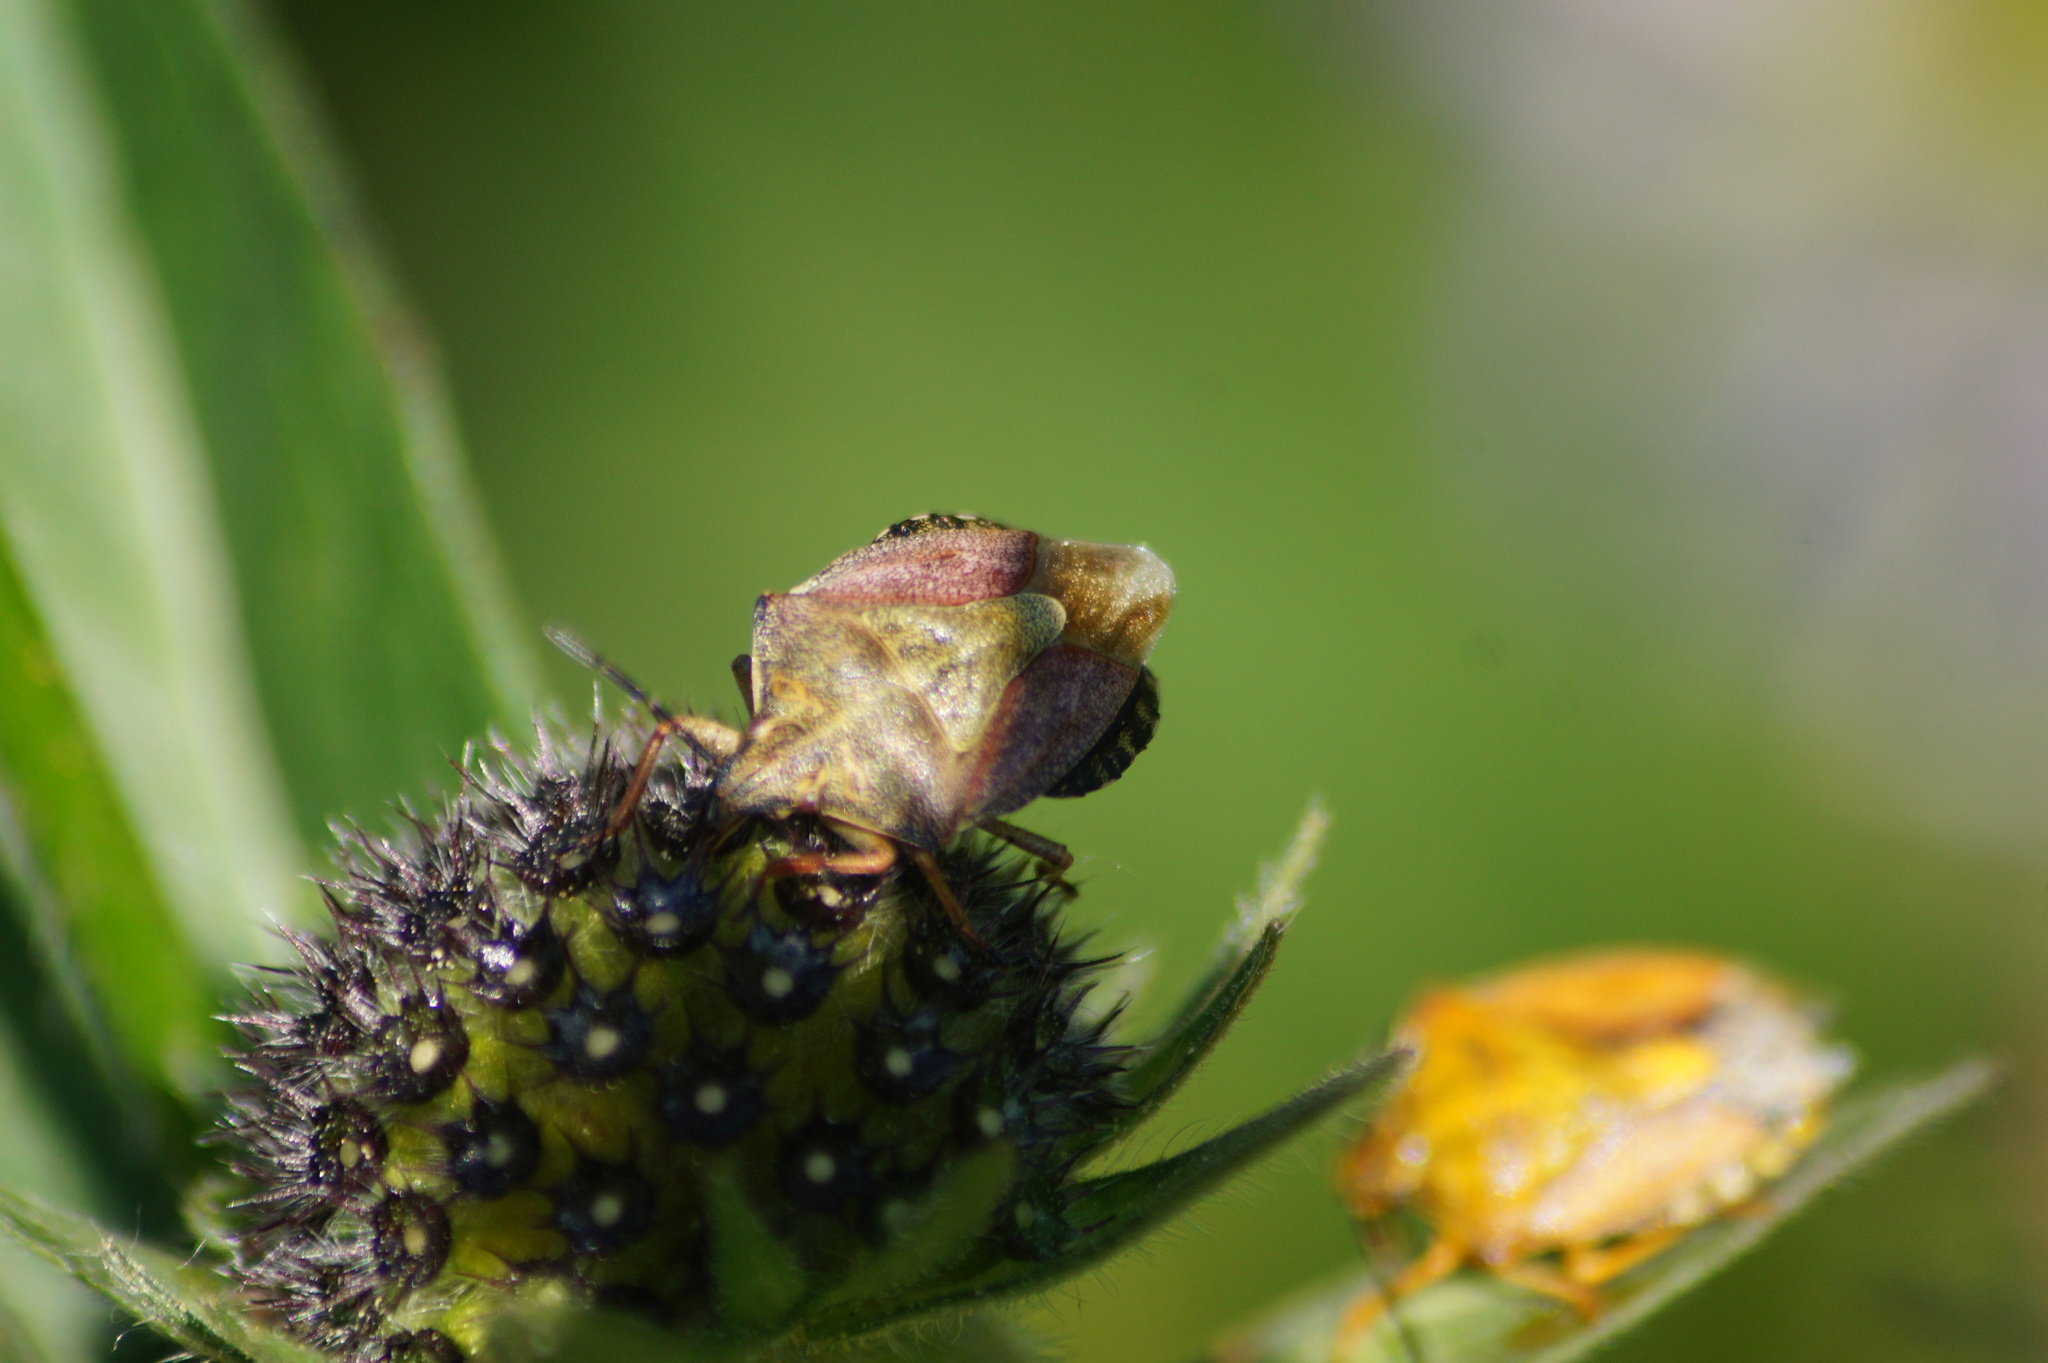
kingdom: Animalia
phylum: Arthropoda
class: Insecta
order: Hemiptera
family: Pentatomidae
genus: Carpocoris
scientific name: Carpocoris melanocerus
